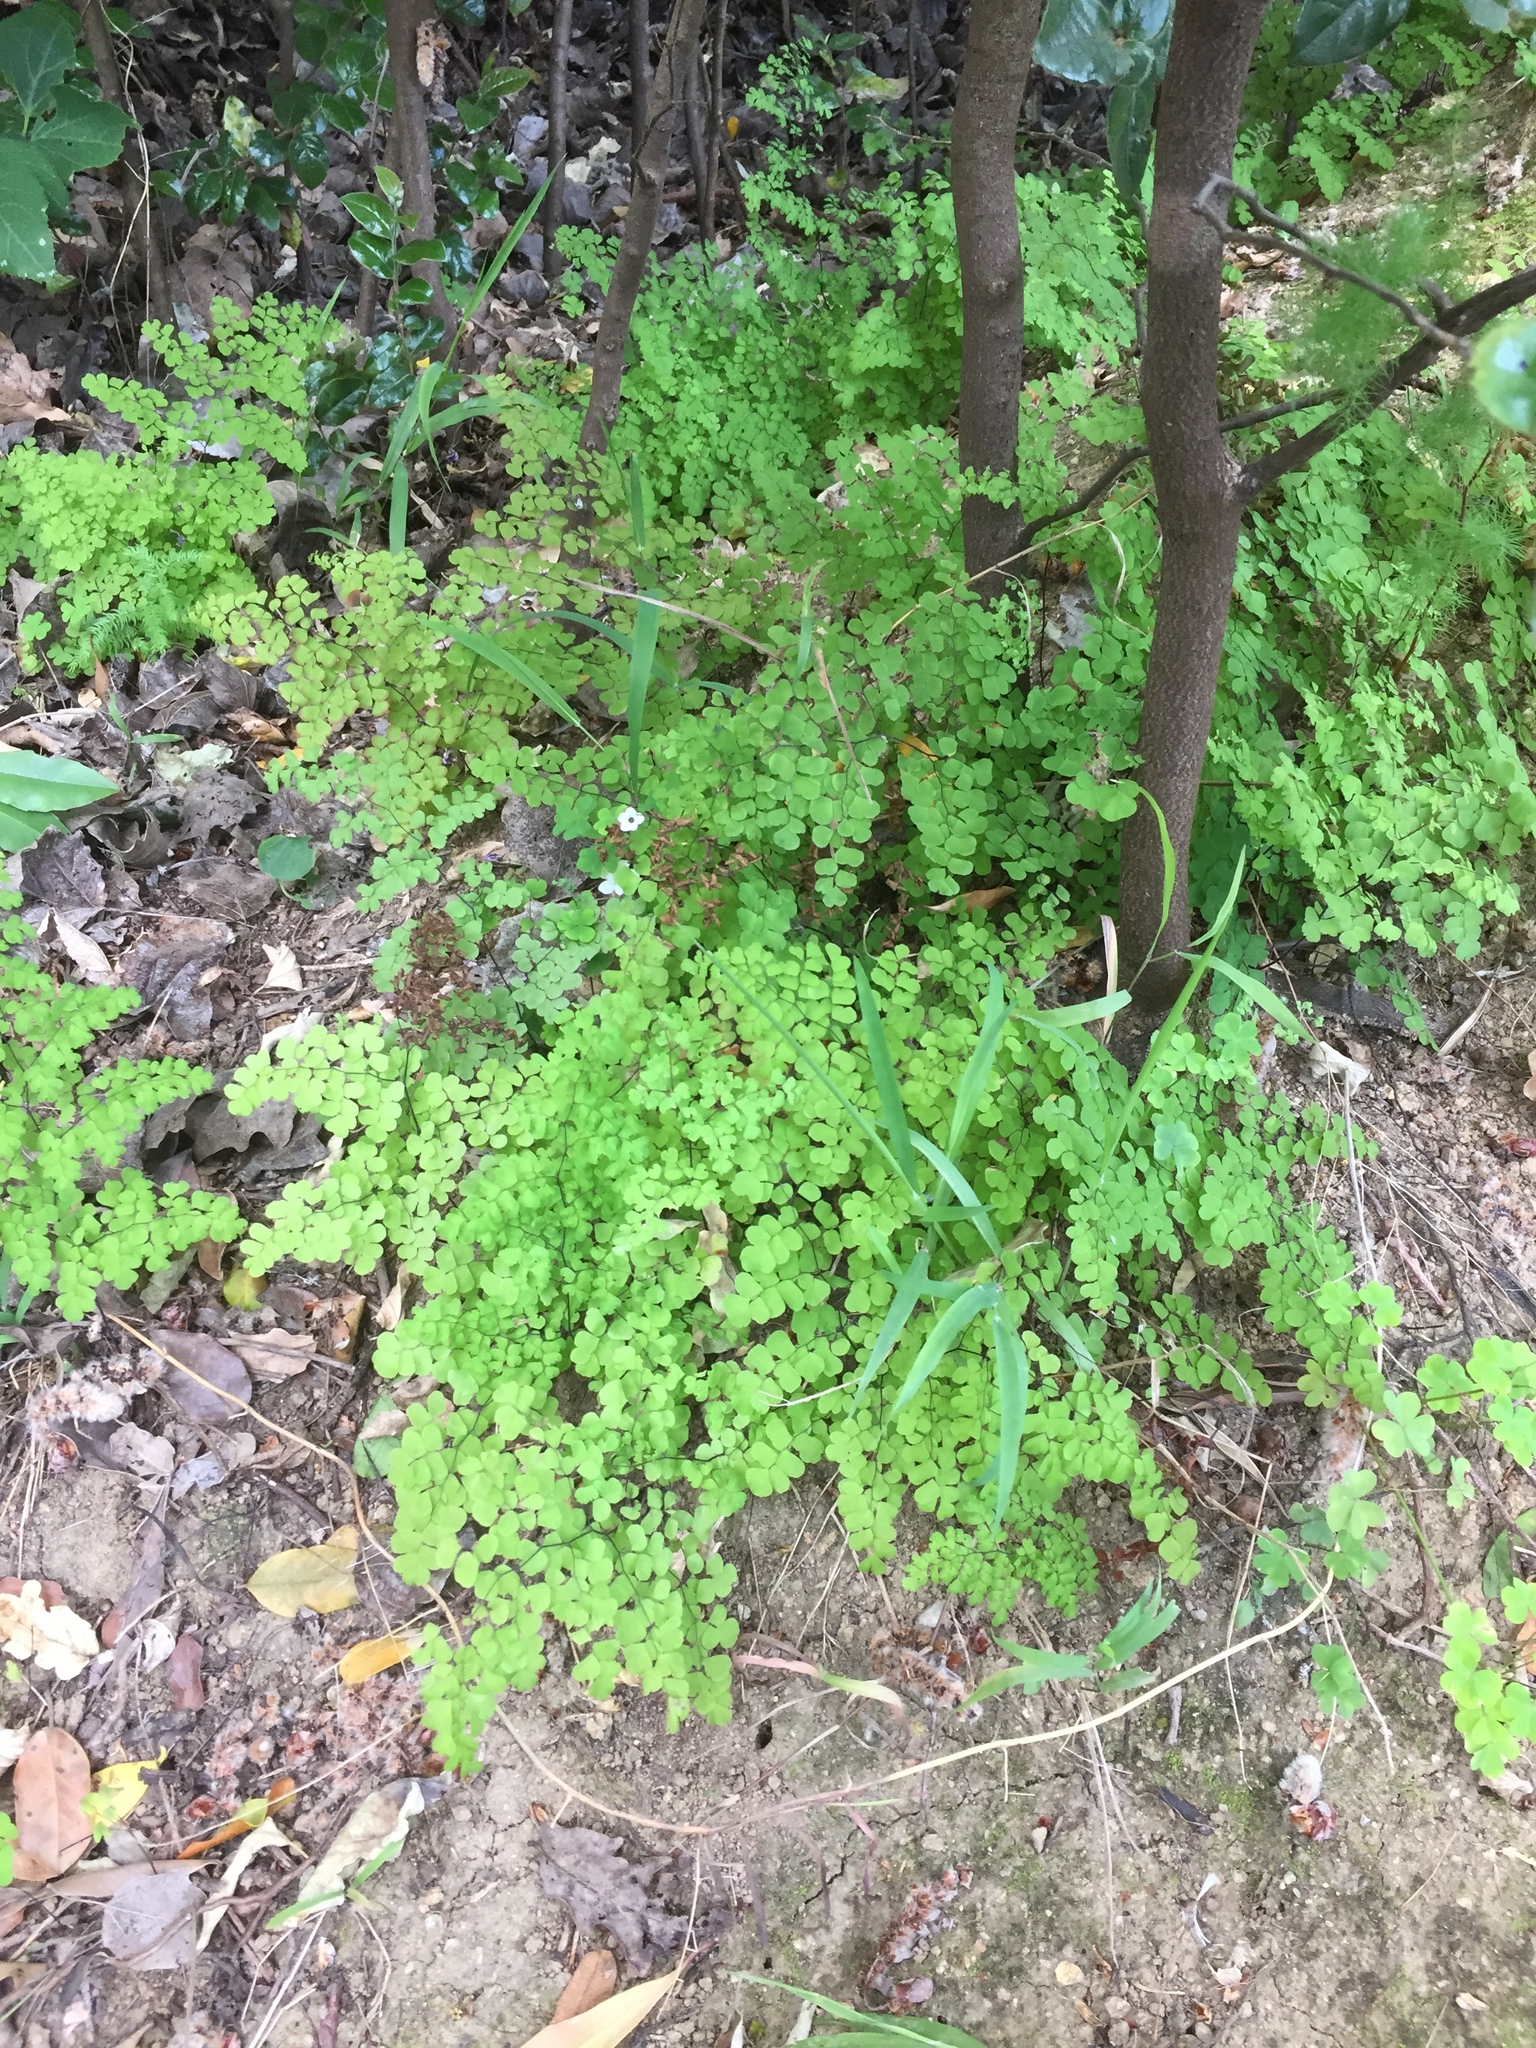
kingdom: Plantae
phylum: Tracheophyta
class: Polypodiopsida
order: Polypodiales
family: Pteridaceae
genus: Adiantum
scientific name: Adiantum aethiopicum
